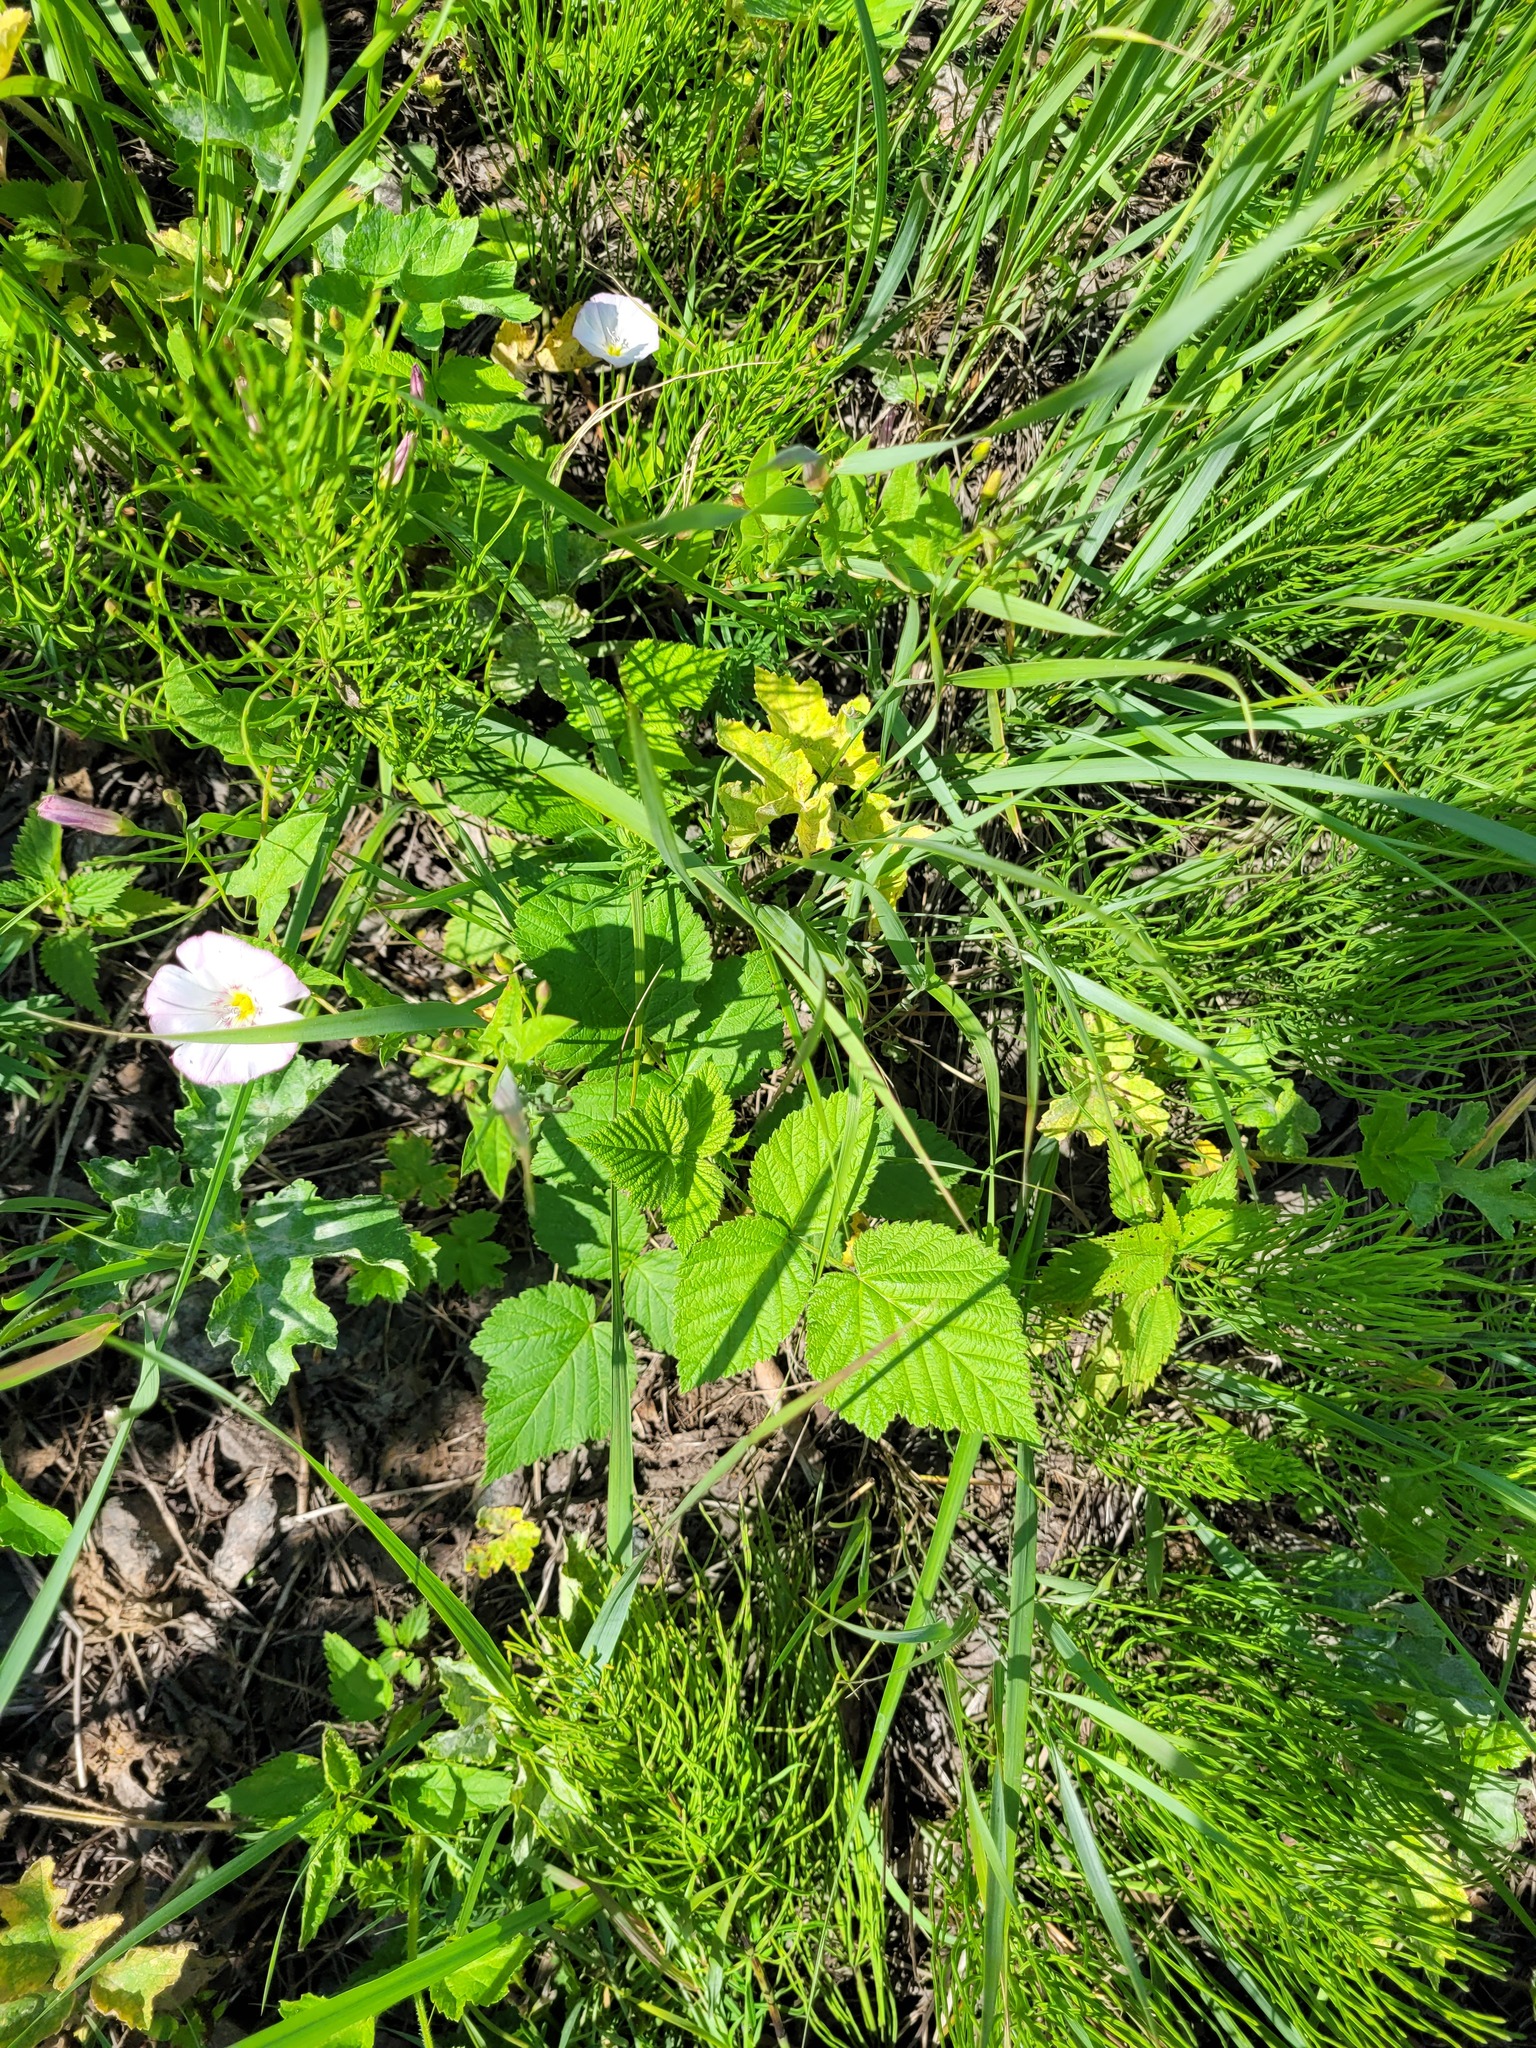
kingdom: Plantae
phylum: Tracheophyta
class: Magnoliopsida
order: Rosales
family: Rosaceae
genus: Rubus
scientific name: Rubus idaeus
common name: Raspberry
